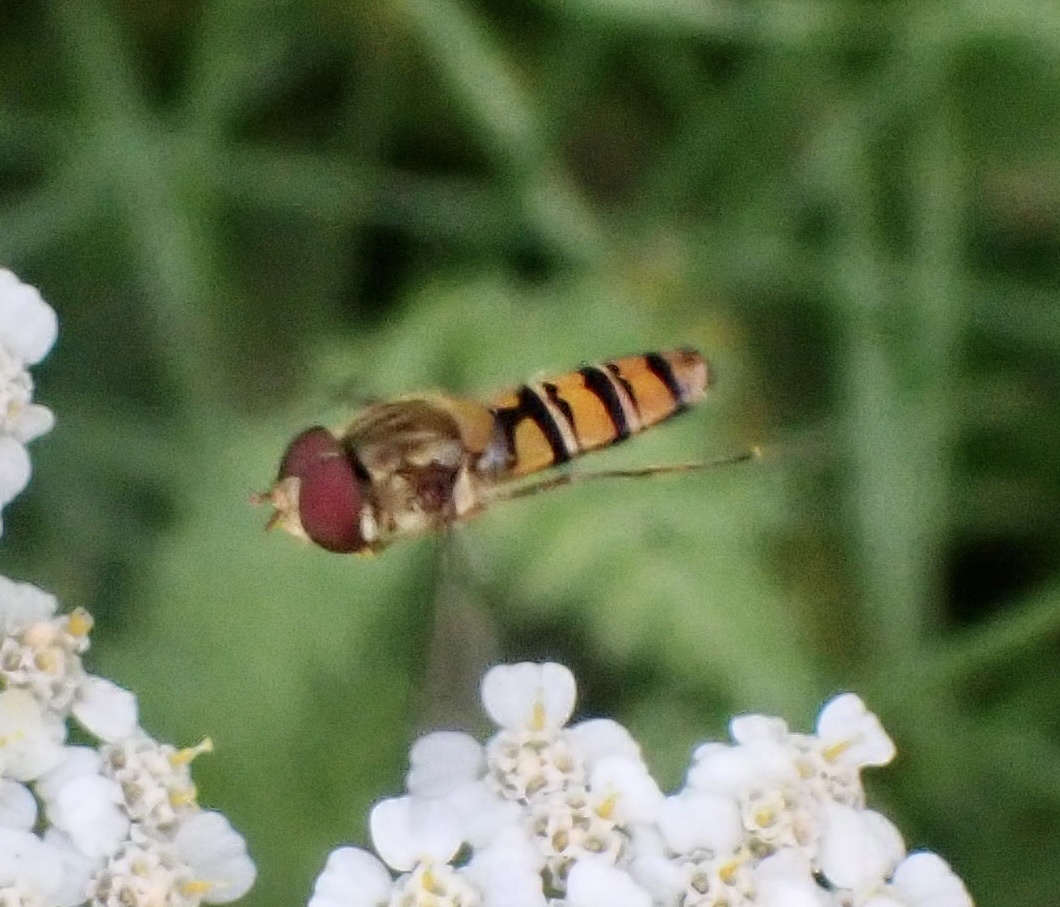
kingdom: Animalia
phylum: Arthropoda
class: Insecta
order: Diptera
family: Syrphidae
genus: Episyrphus
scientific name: Episyrphus balteatus
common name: Marmalade hoverfly
